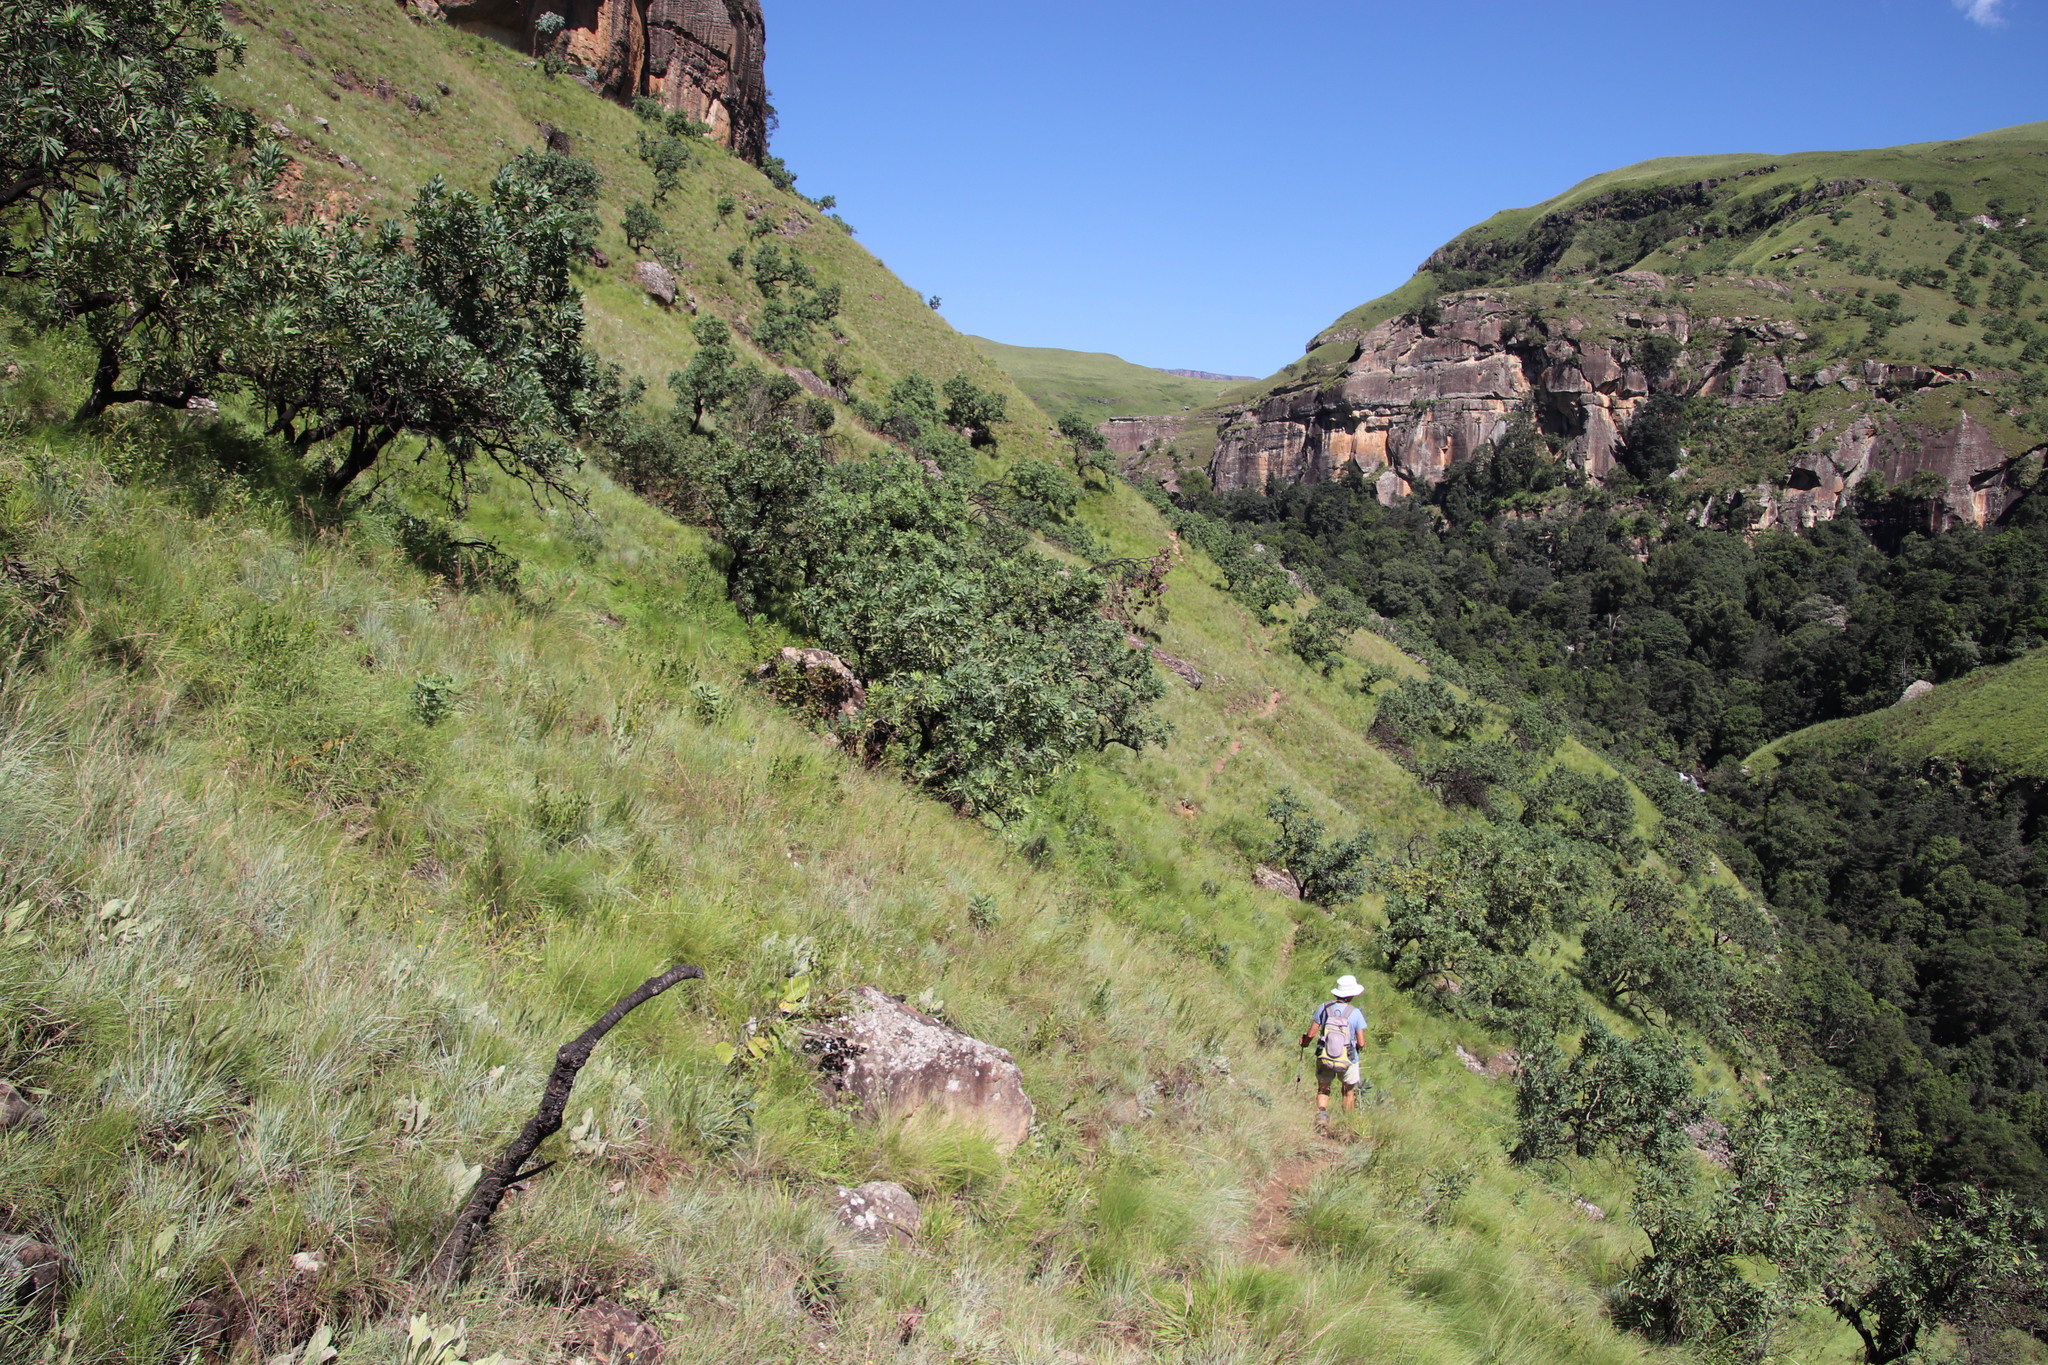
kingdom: Plantae
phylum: Tracheophyta
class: Magnoliopsida
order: Ericales
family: Ericaceae
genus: Erica
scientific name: Erica aestiva
